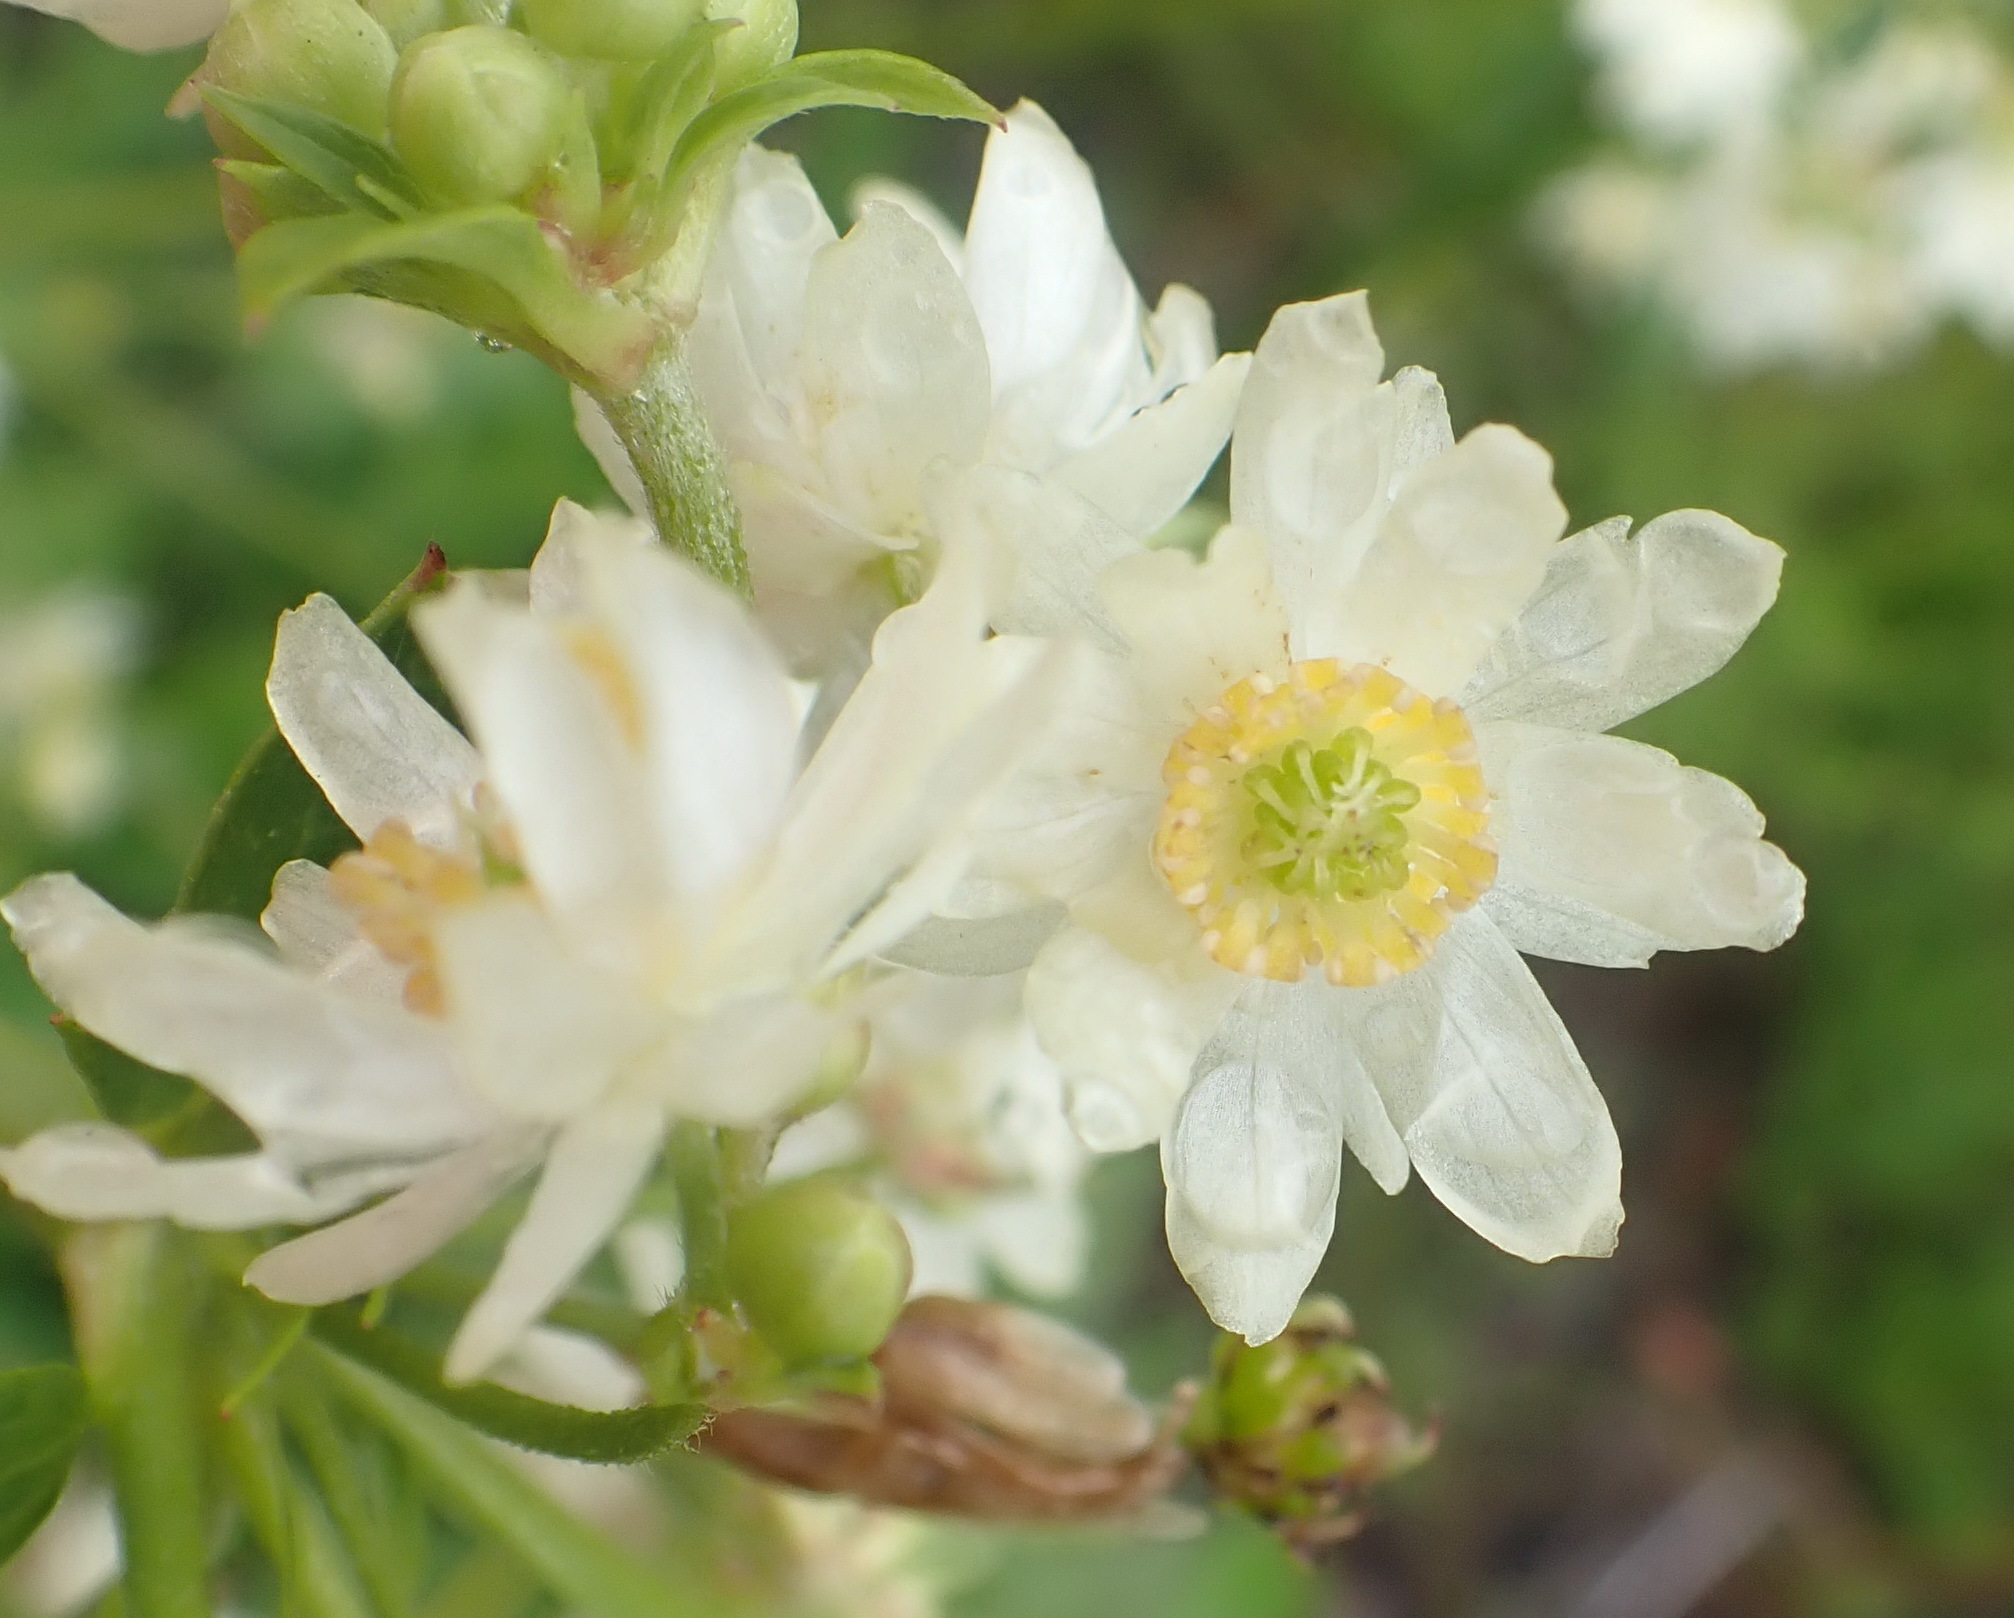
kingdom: Plantae
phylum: Tracheophyta
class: Magnoliopsida
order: Ranunculales
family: Ranunculaceae
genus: Knowltonia
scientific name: Knowltonia cordata
